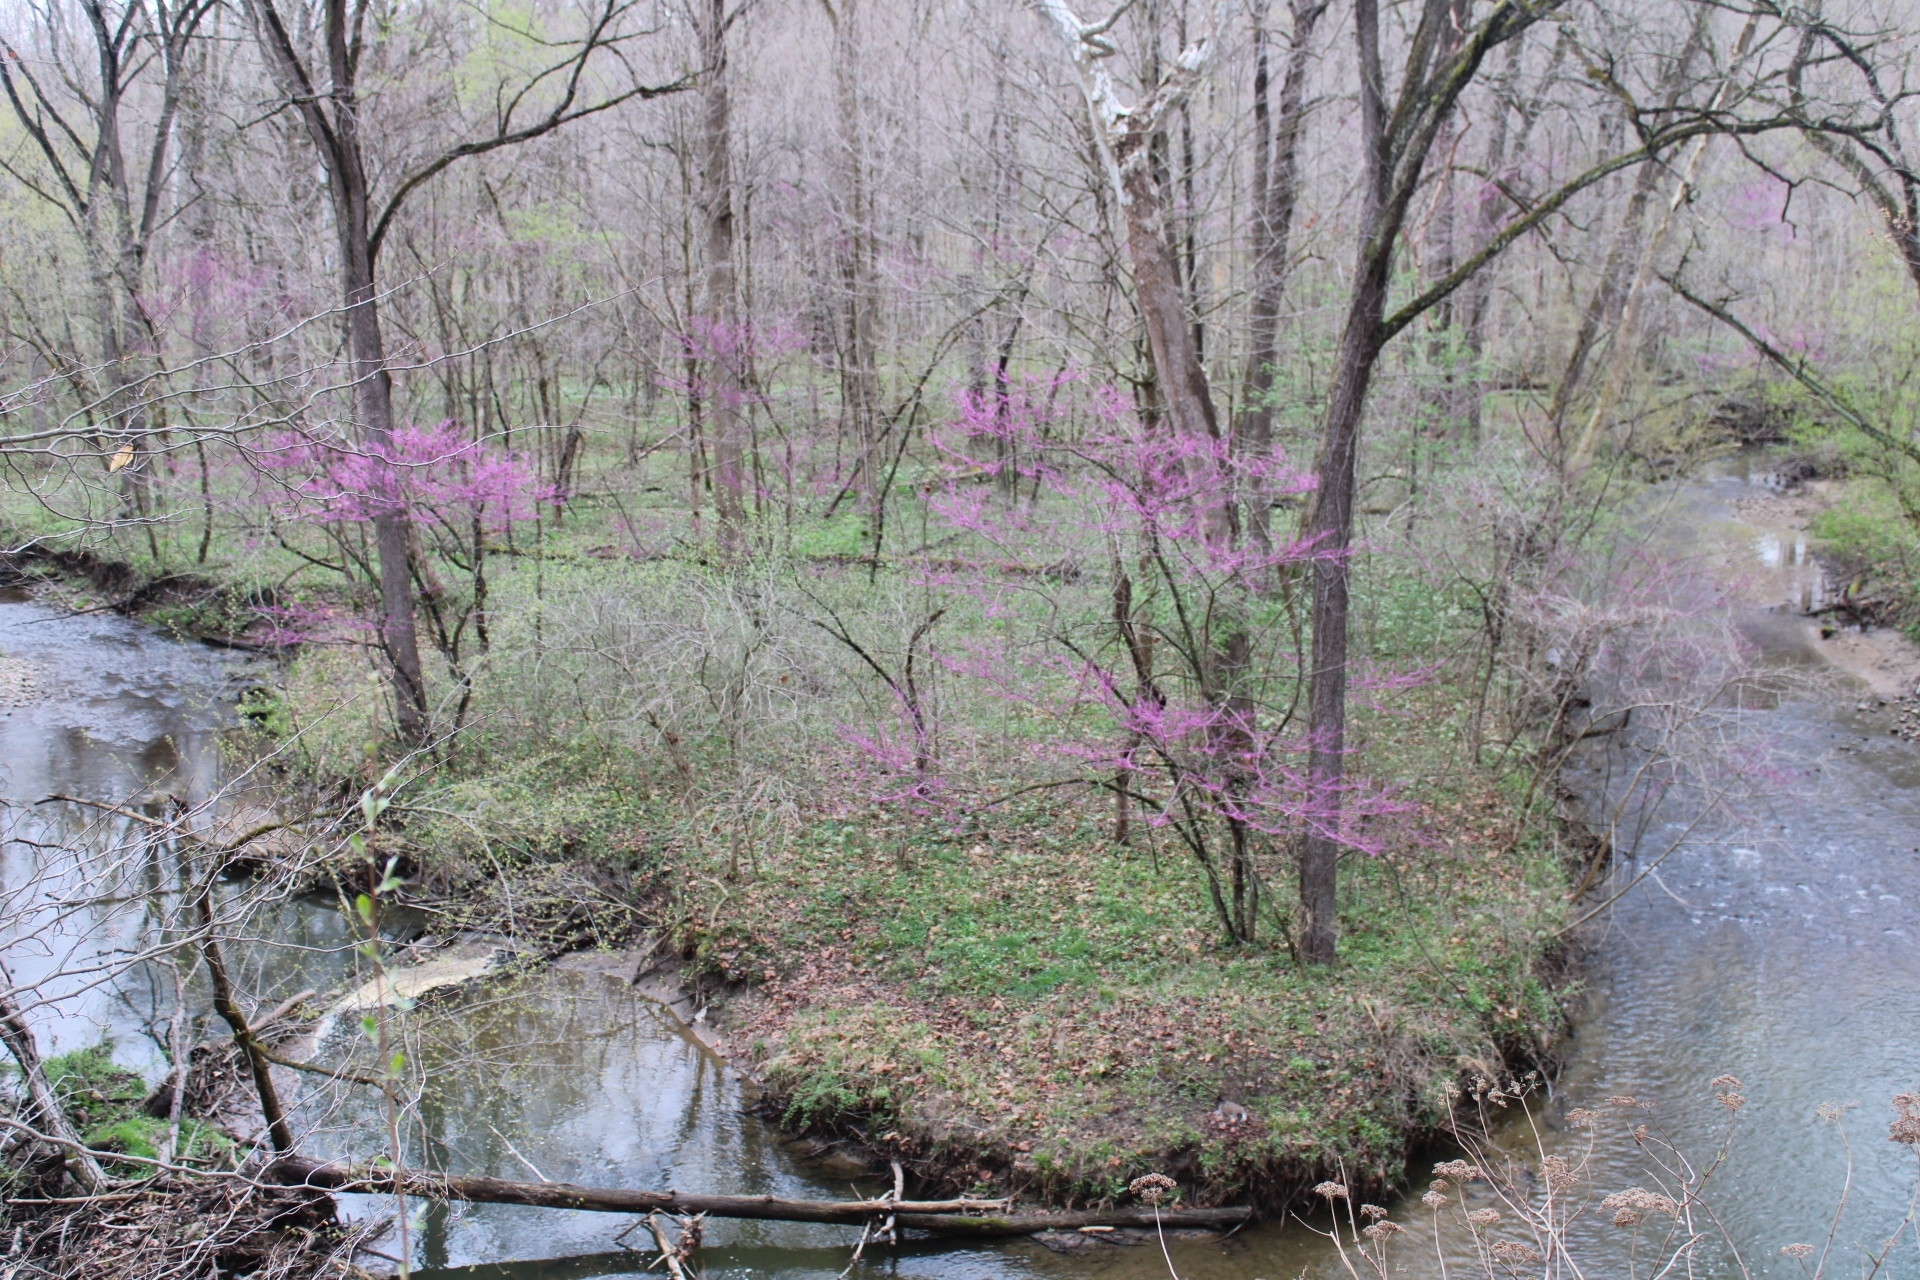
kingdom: Plantae
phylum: Tracheophyta
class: Magnoliopsida
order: Fabales
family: Fabaceae
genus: Cercis
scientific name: Cercis canadensis
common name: Eastern redbud
